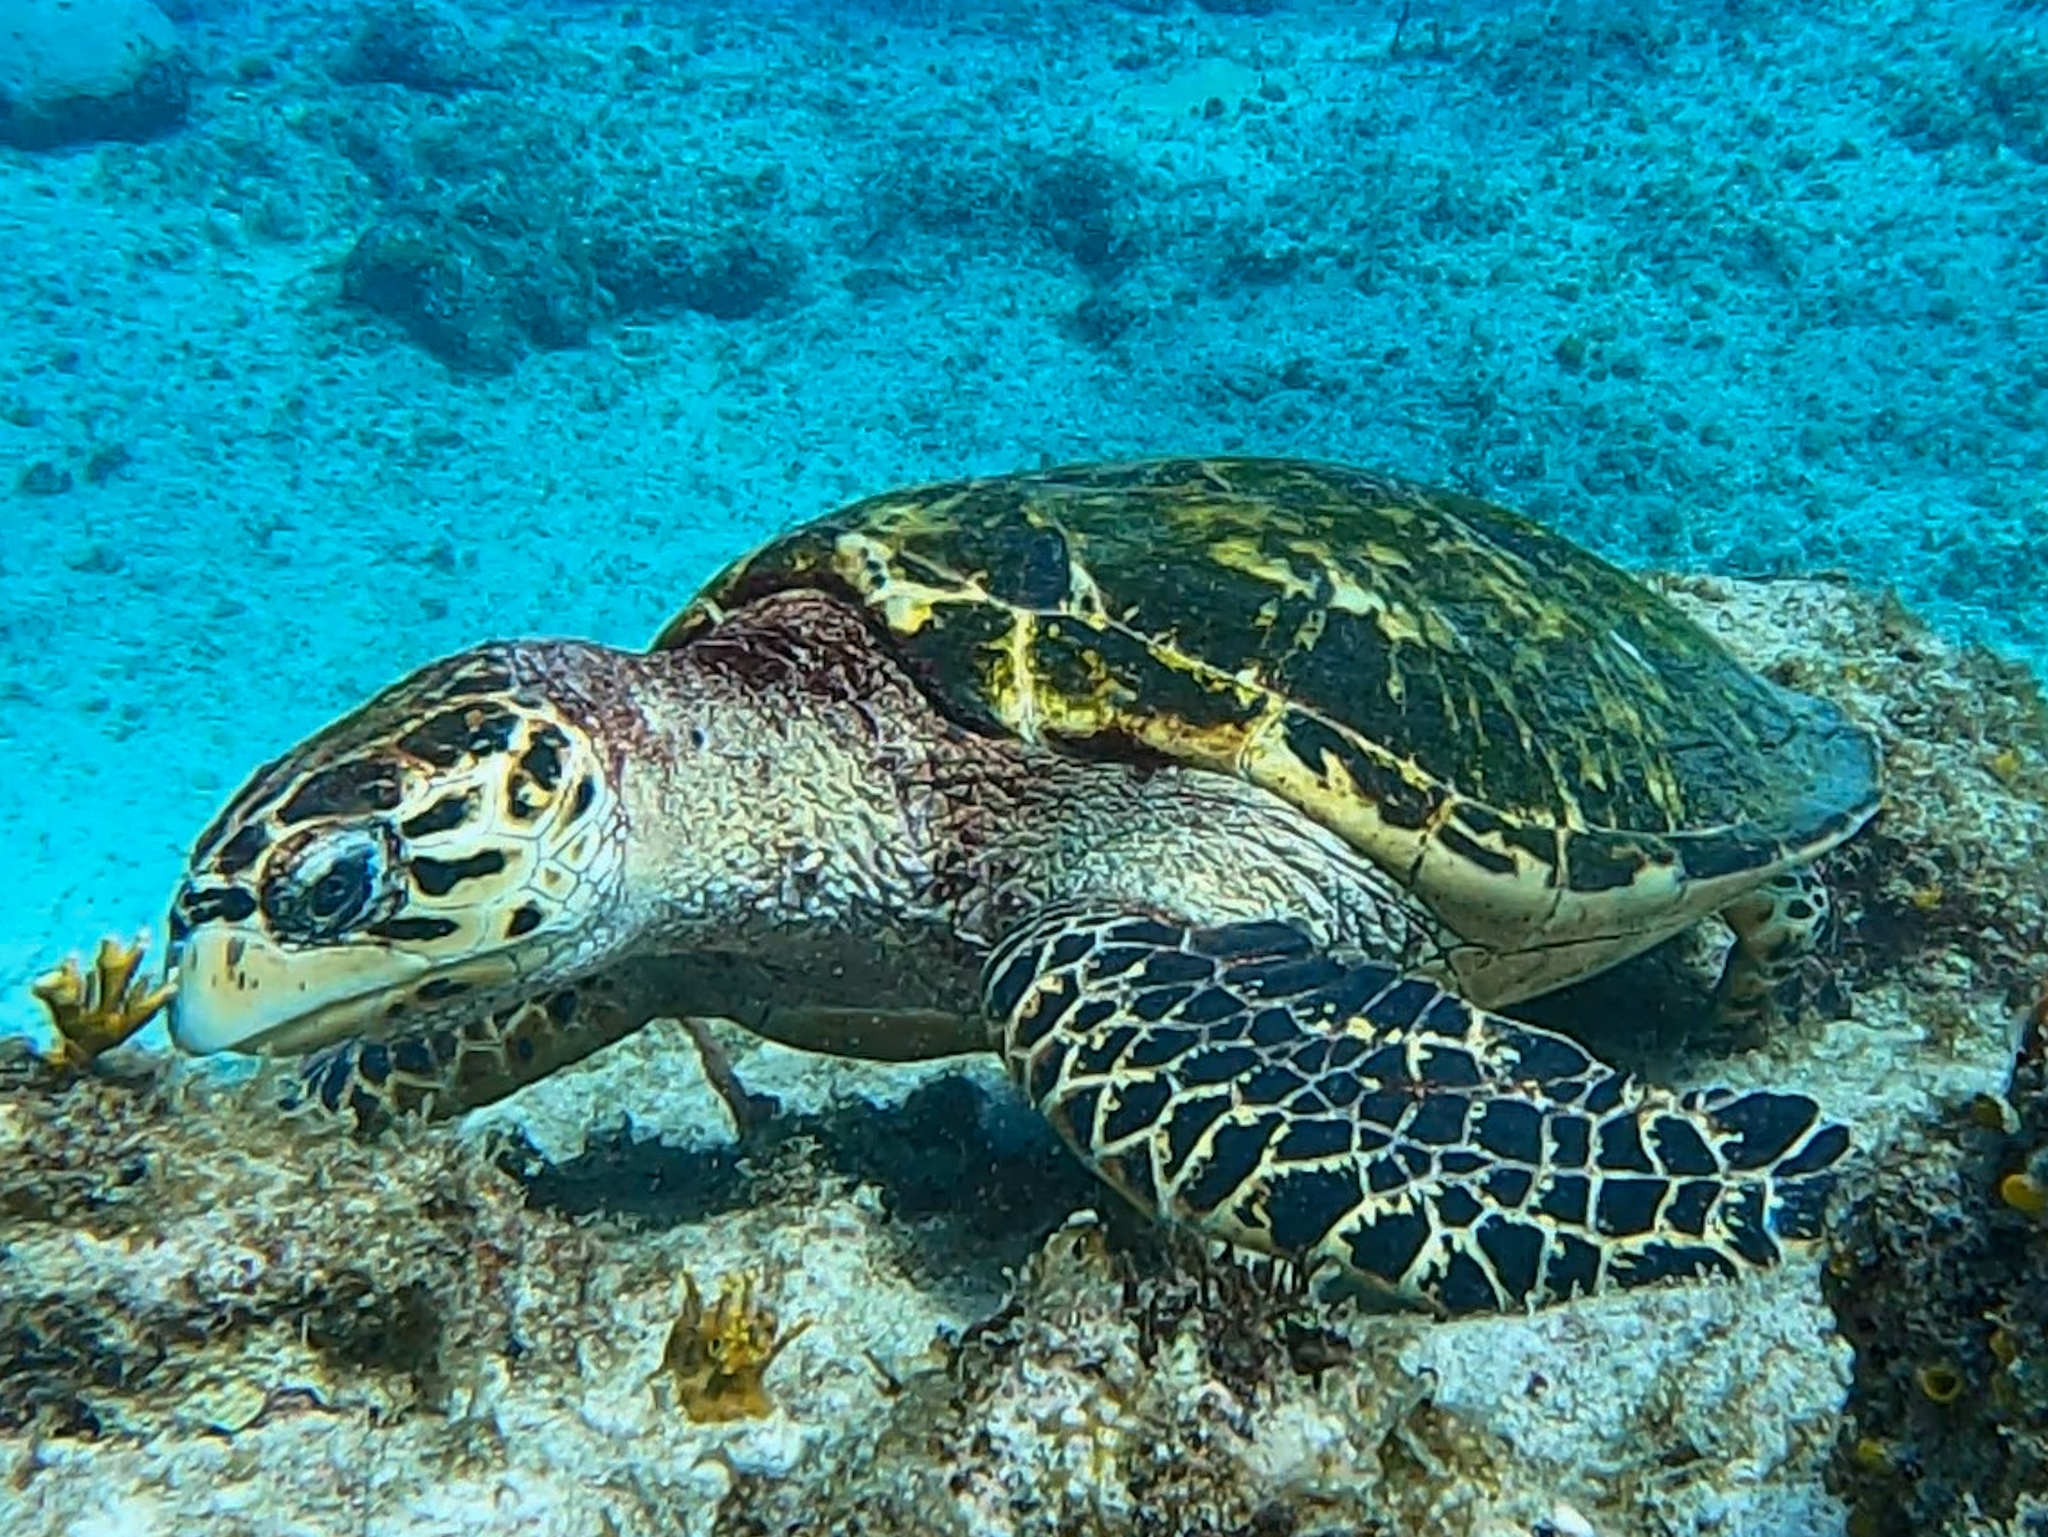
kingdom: Animalia
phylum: Chordata
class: Testudines
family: Cheloniidae
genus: Eretmochelys
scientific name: Eretmochelys imbricata
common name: Hawksbill turtle
